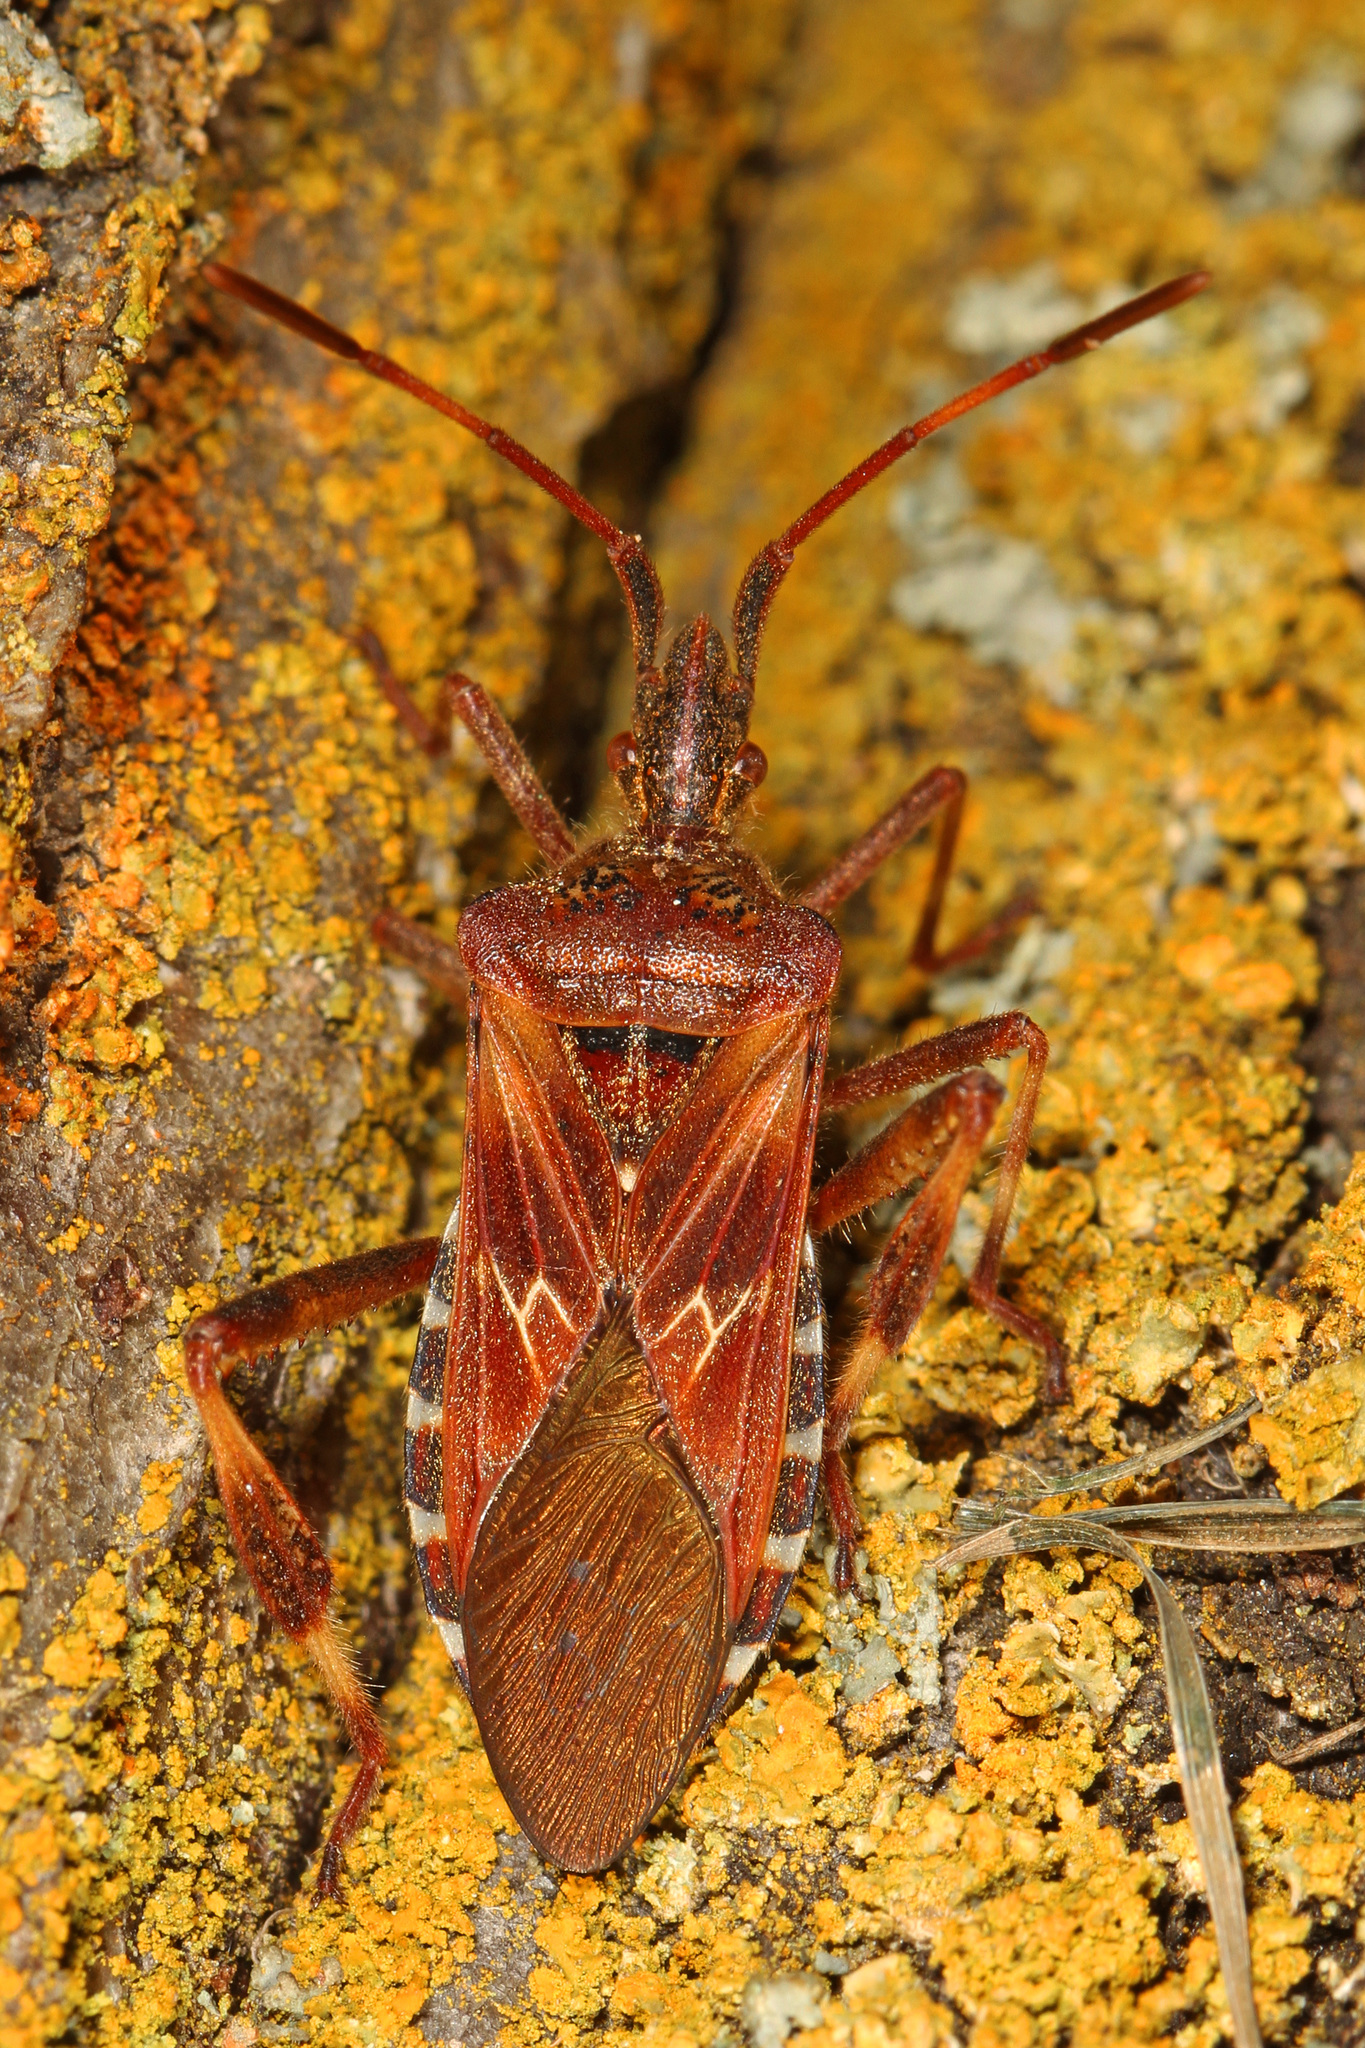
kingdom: Animalia
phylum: Arthropoda
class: Insecta
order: Hemiptera
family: Coreidae
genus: Leptoglossus
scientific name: Leptoglossus occidentalis
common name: Western conifer-seed bug
